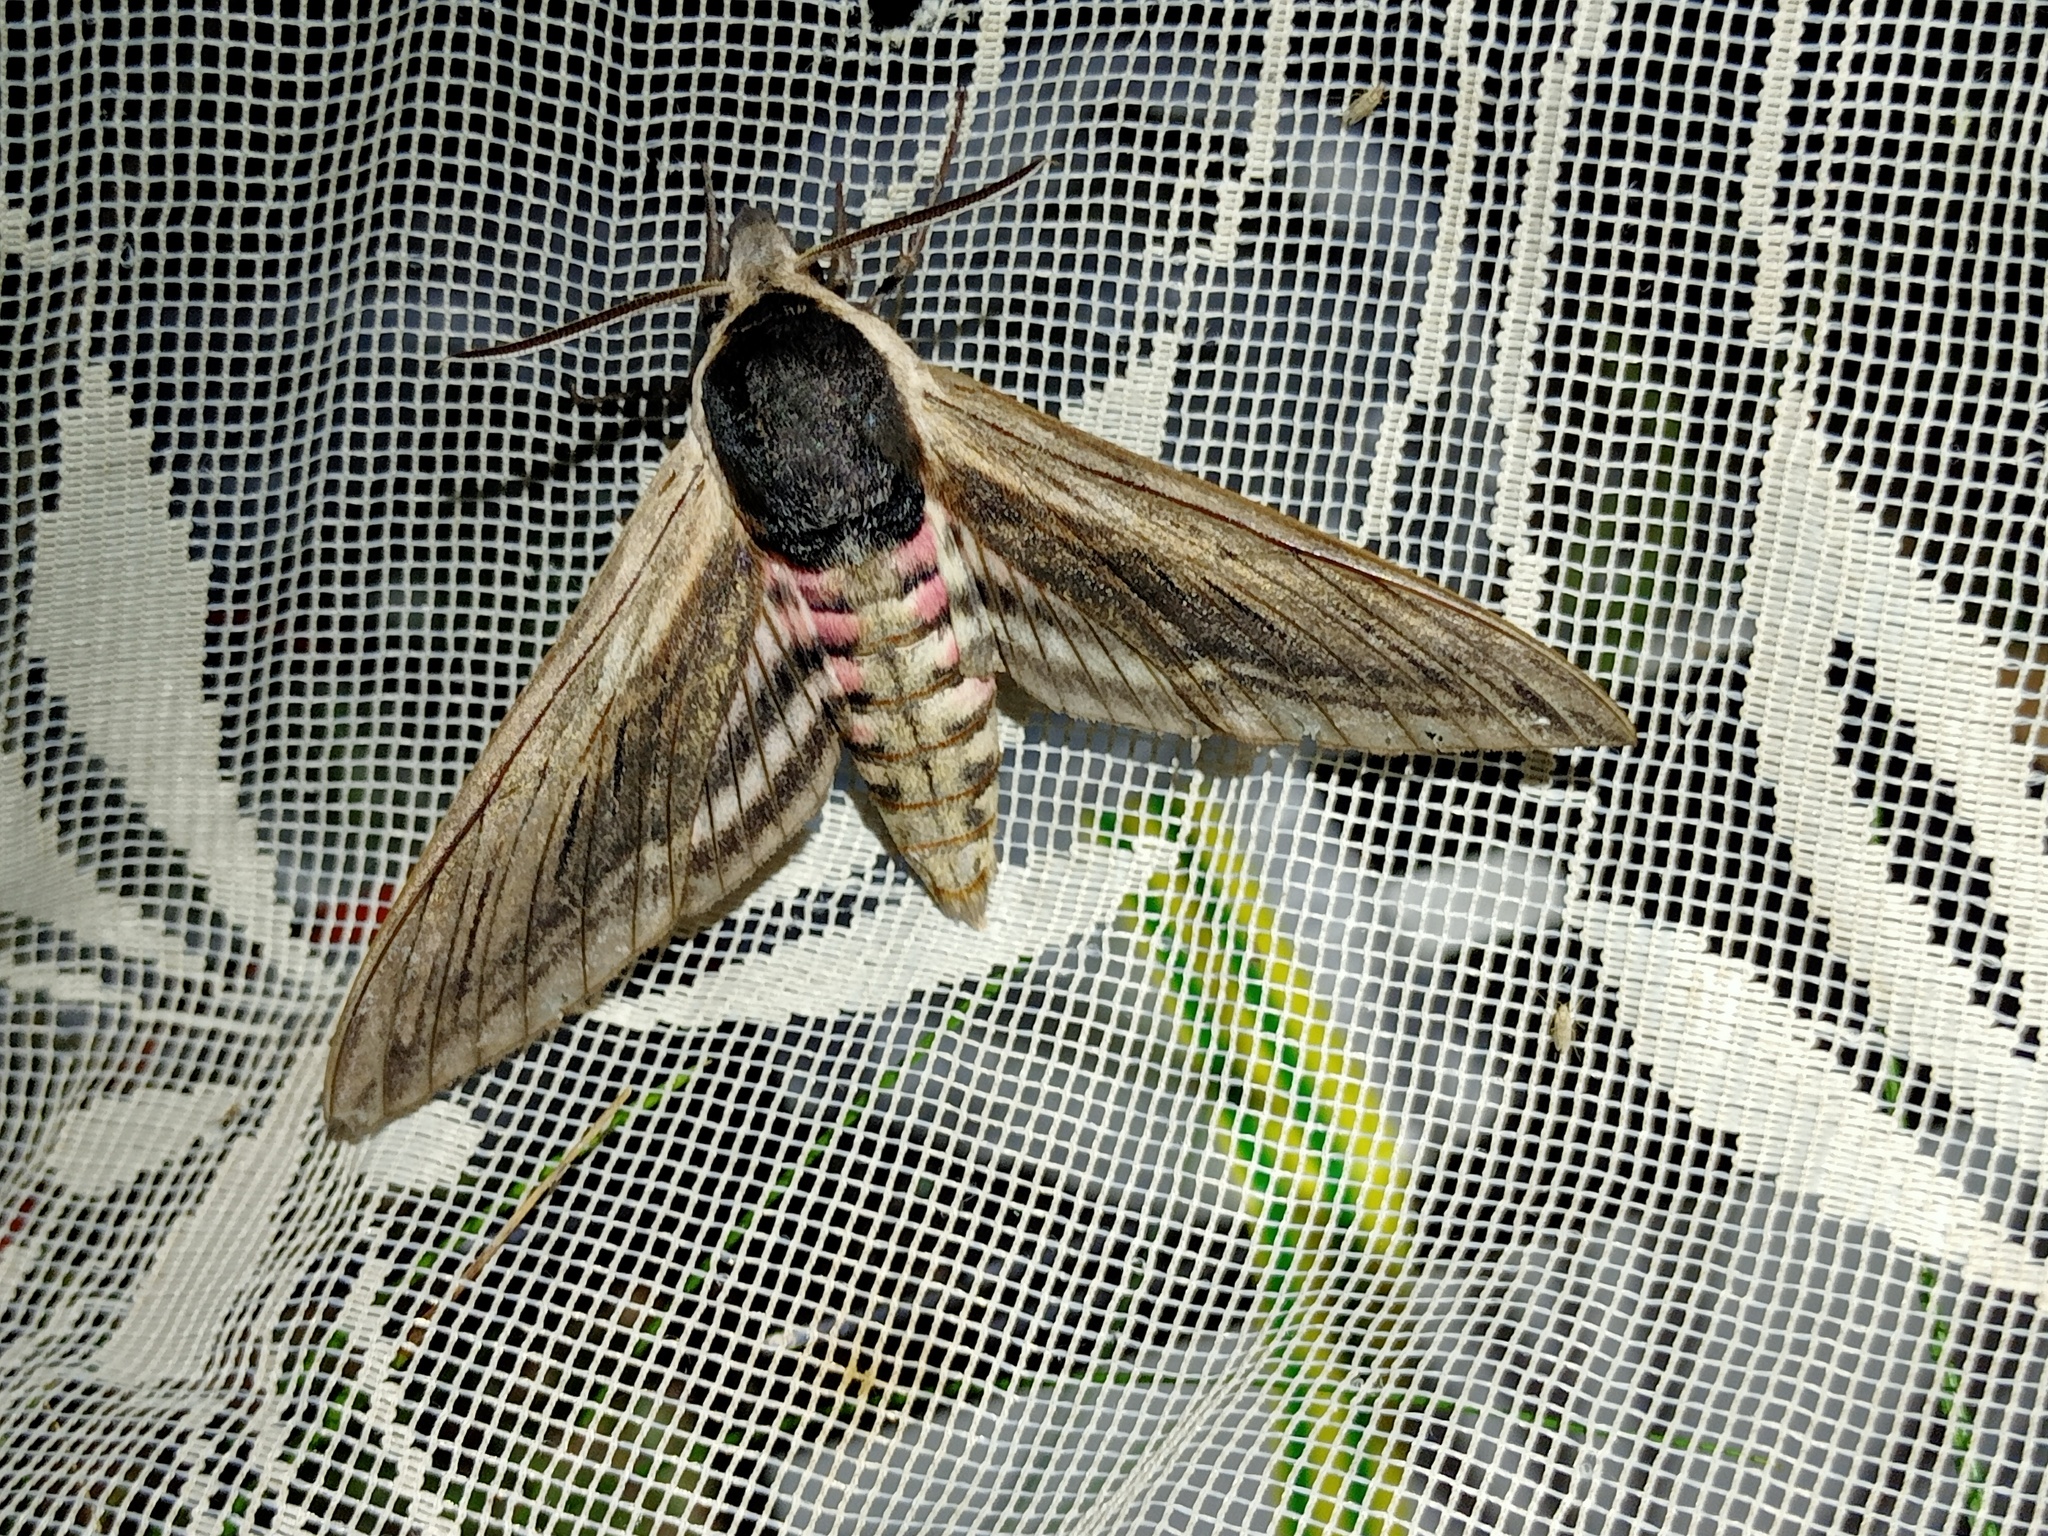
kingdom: Animalia
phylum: Arthropoda
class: Insecta
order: Lepidoptera
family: Sphingidae
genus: Sphinx
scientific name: Sphinx ligustri
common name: Privet hawk-moth
